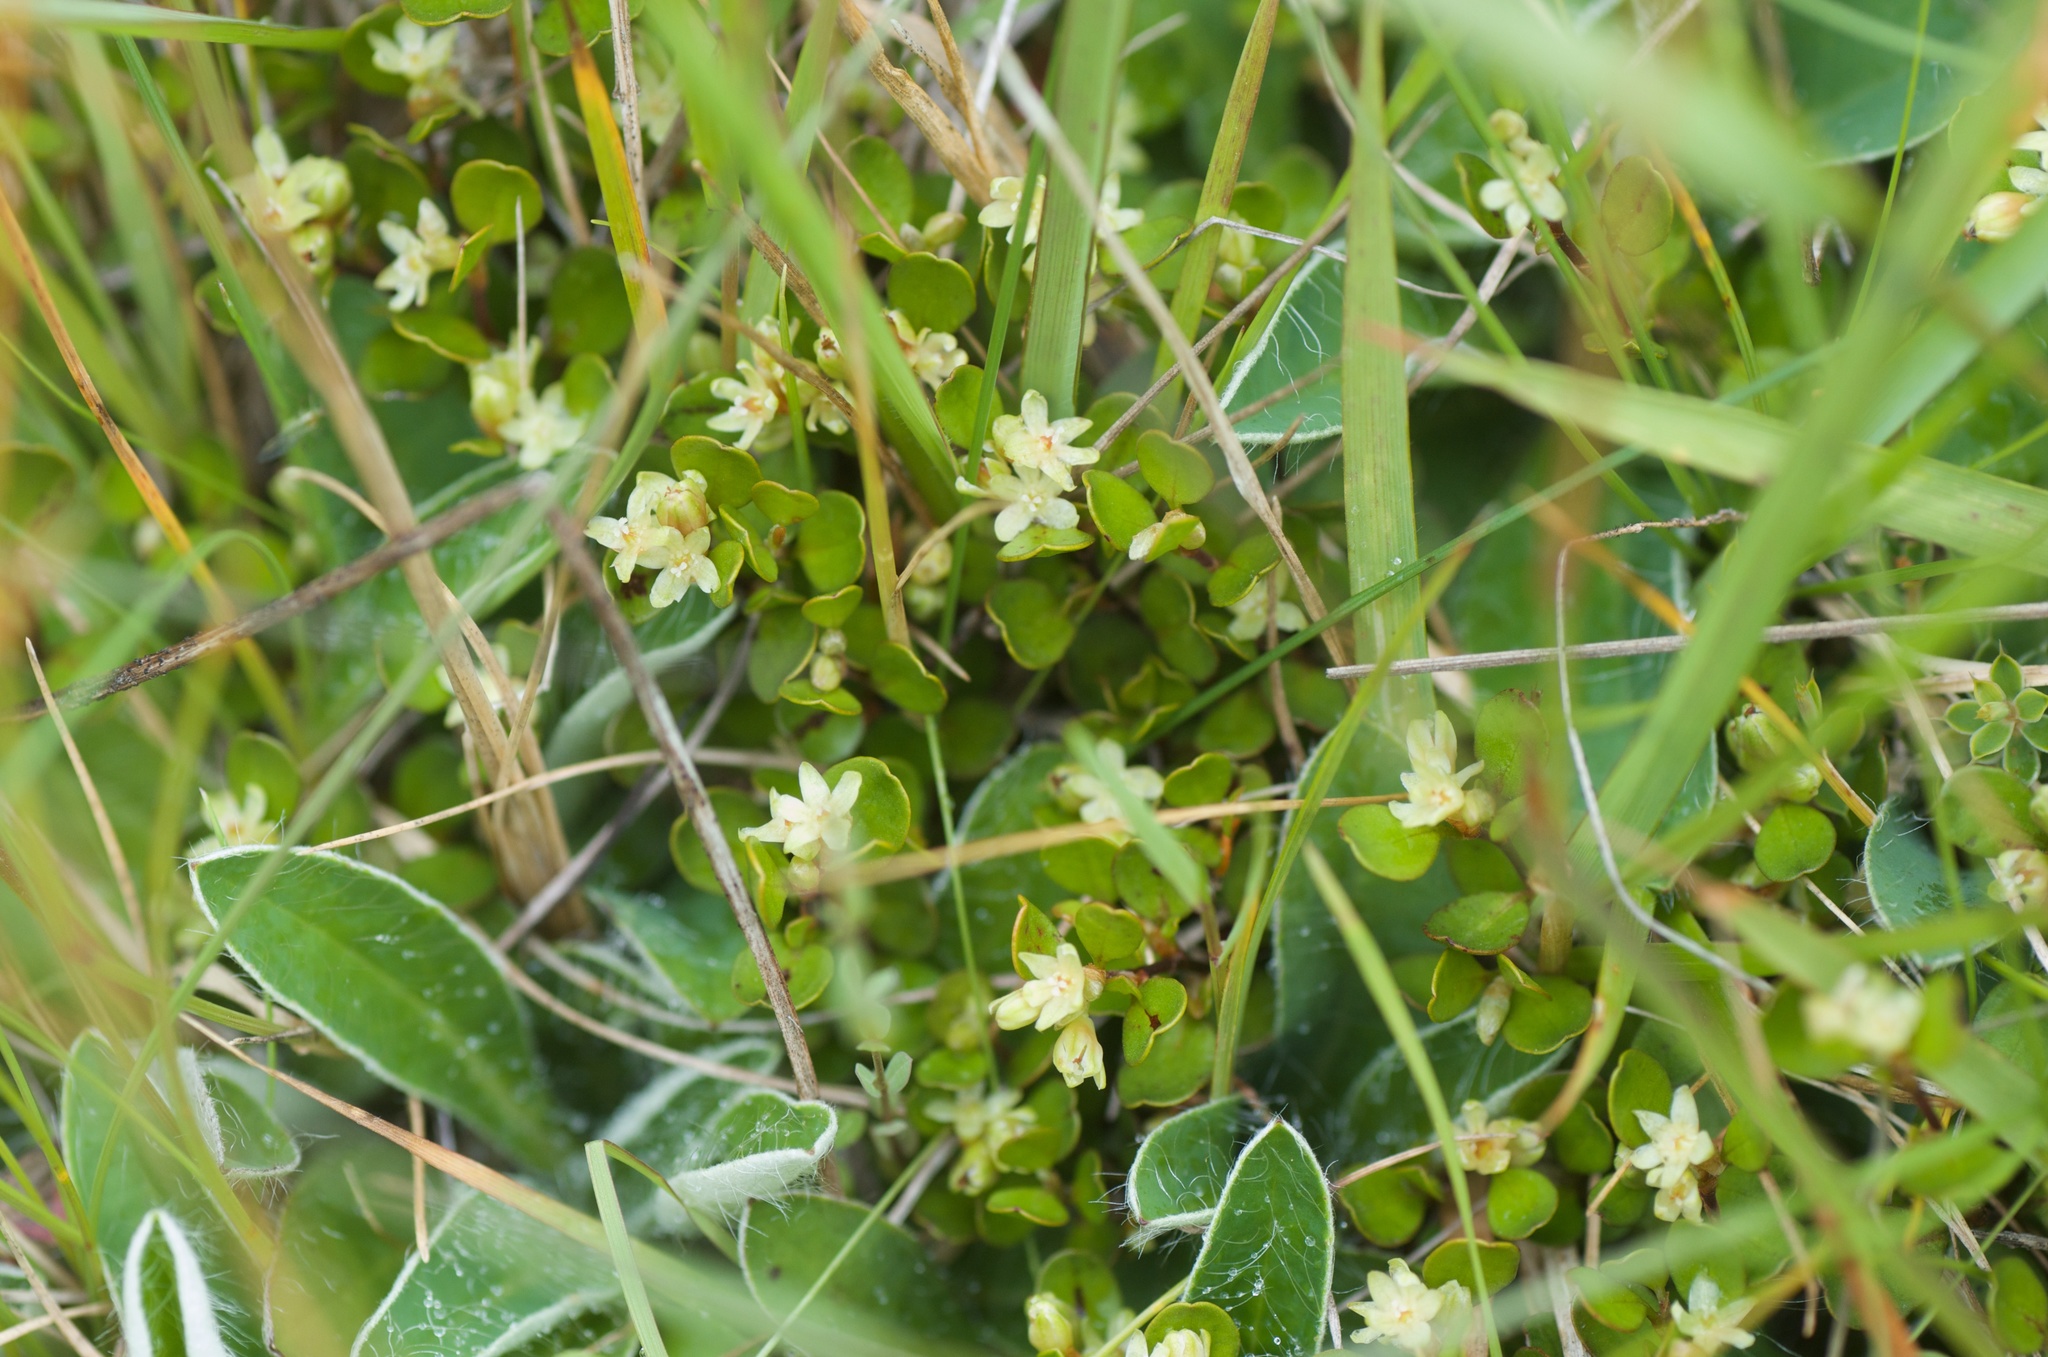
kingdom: Plantae
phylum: Tracheophyta
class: Magnoliopsida
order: Caryophyllales
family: Polygonaceae
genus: Muehlenbeckia
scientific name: Muehlenbeckia axillaris
